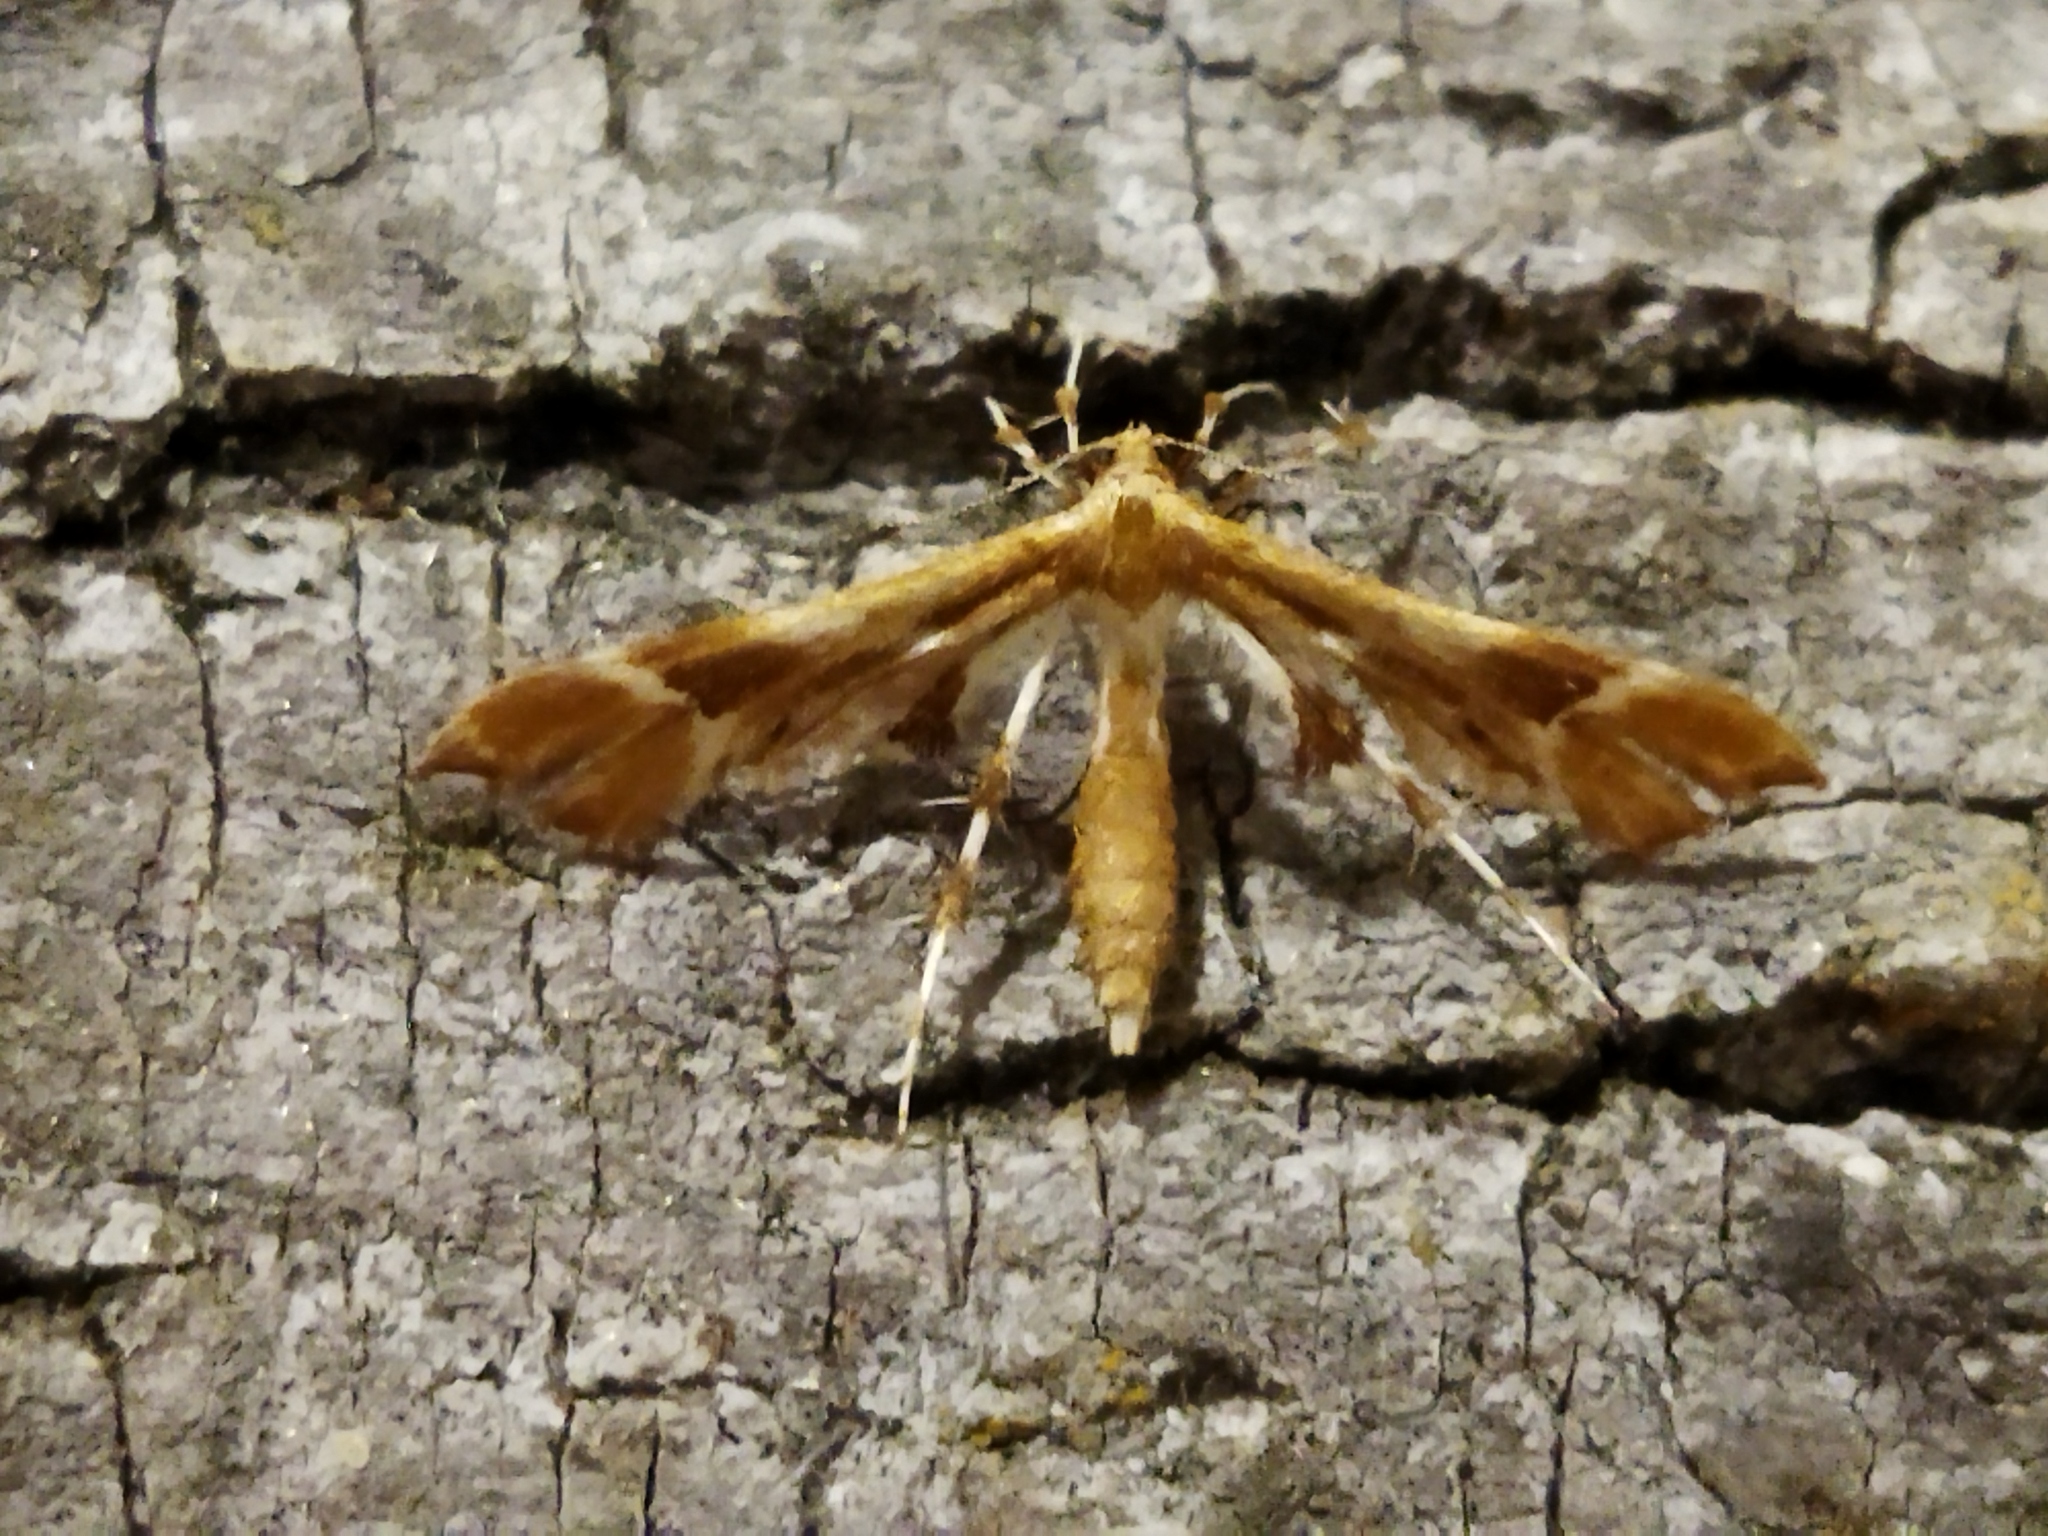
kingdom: Animalia
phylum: Arthropoda
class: Insecta
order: Lepidoptera
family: Pterophoridae
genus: Cnaemidophorus
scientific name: Cnaemidophorus rhododactyla
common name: Rose plume
